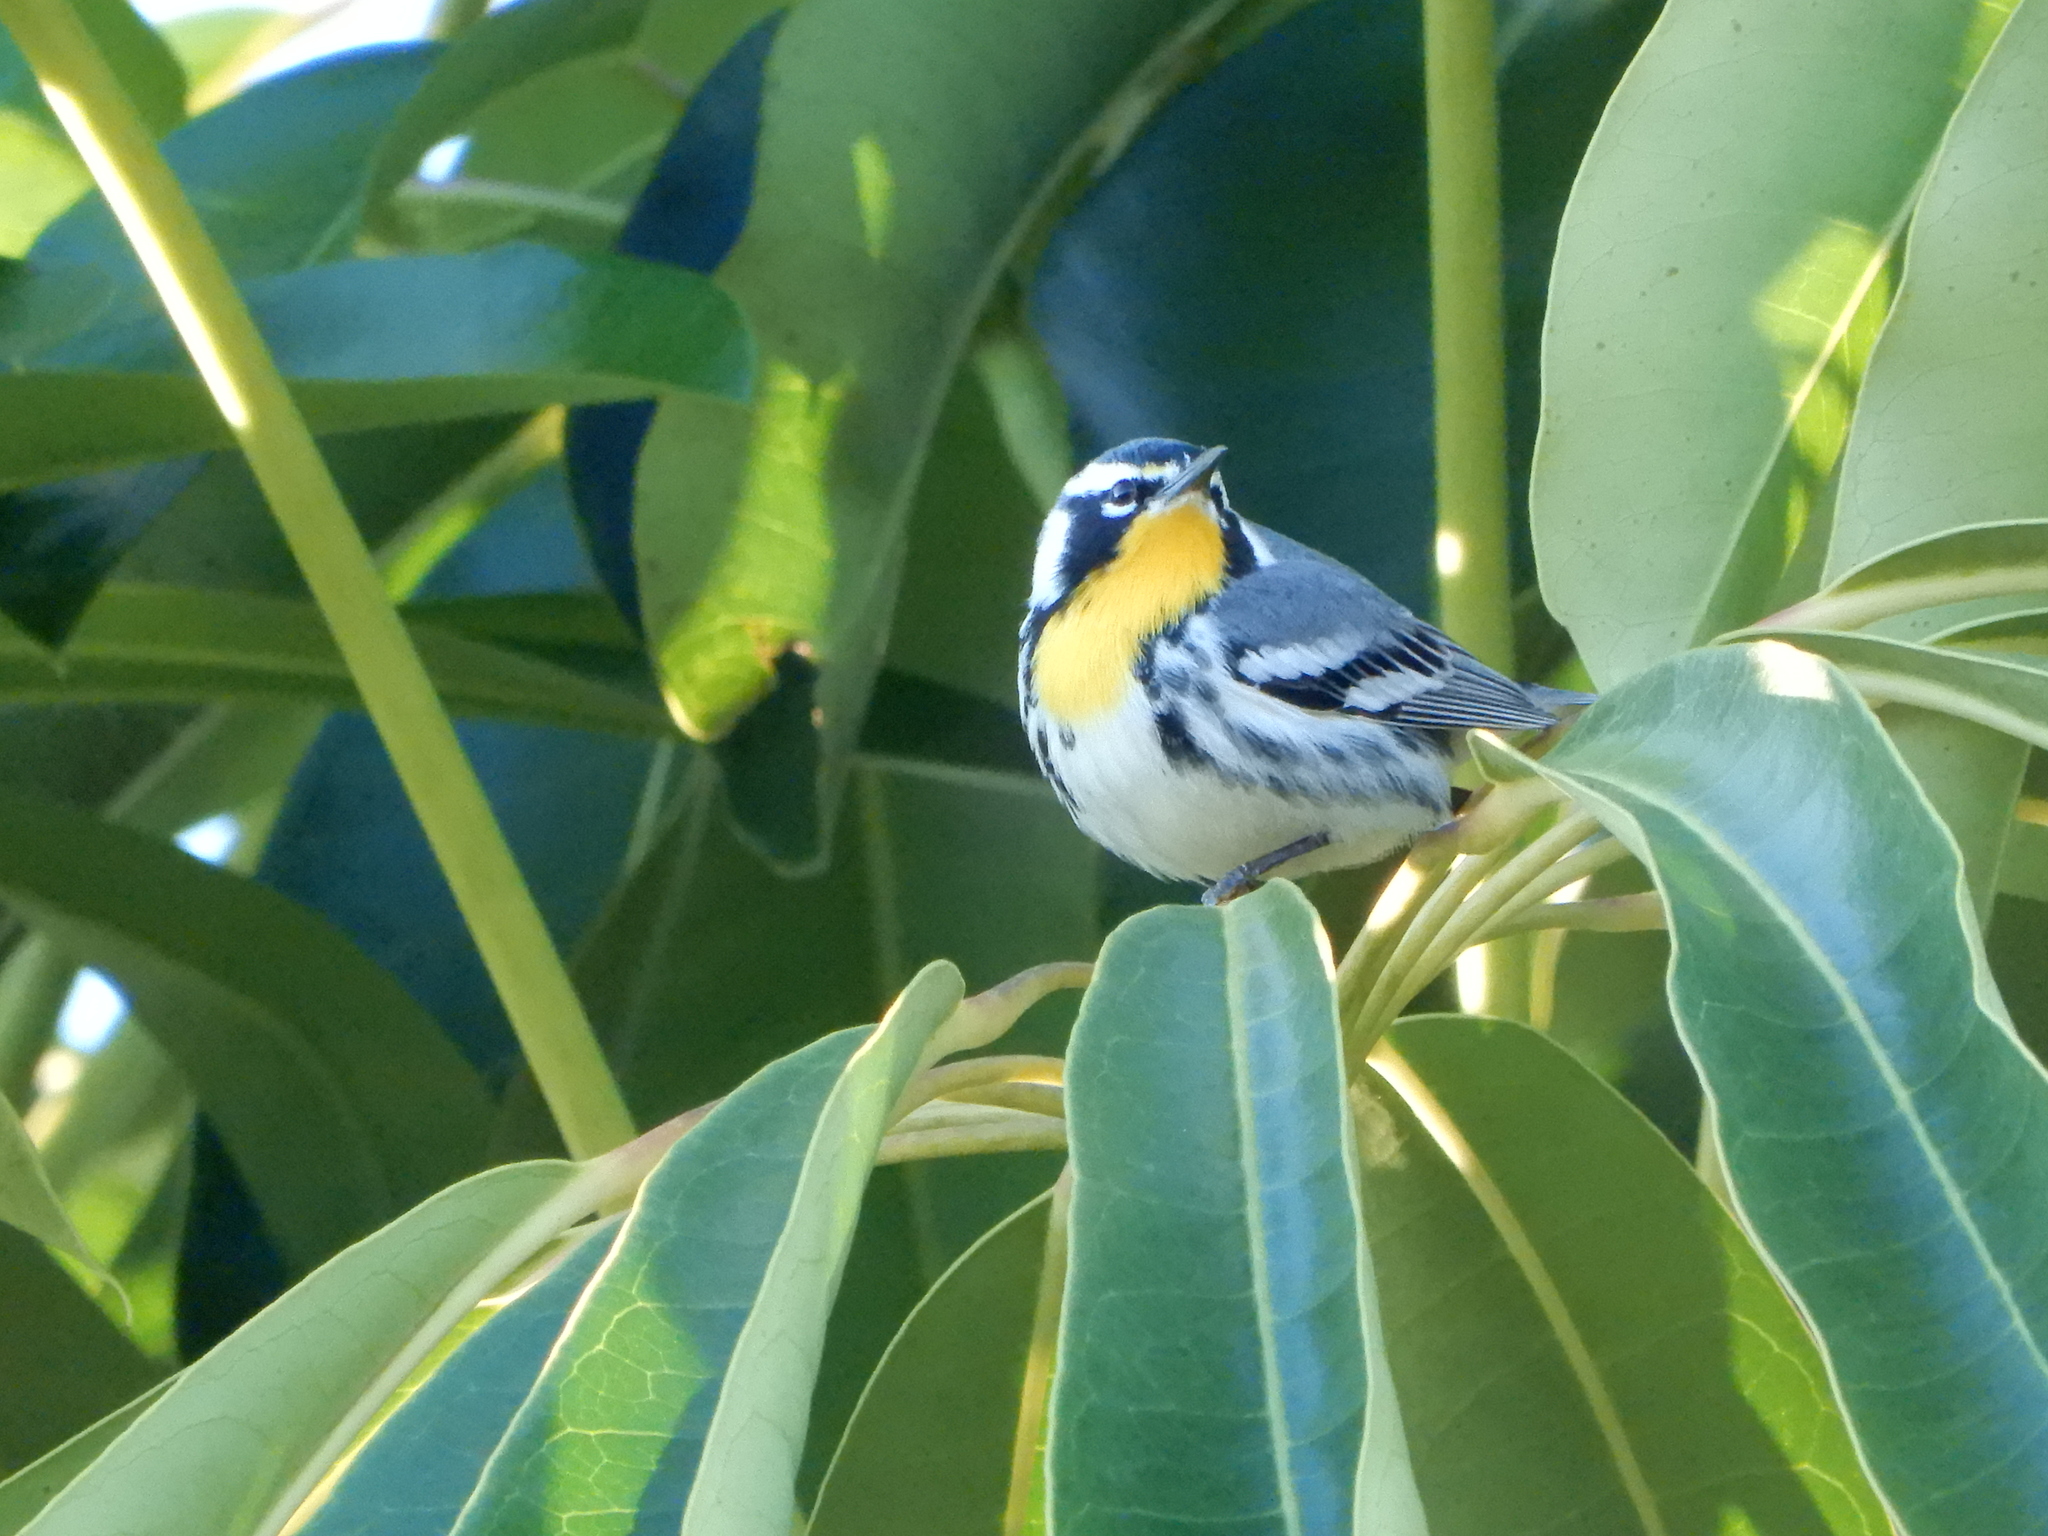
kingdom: Animalia
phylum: Chordata
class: Aves
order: Passeriformes
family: Parulidae
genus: Setophaga
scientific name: Setophaga dominica
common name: Yellow-throated warbler
